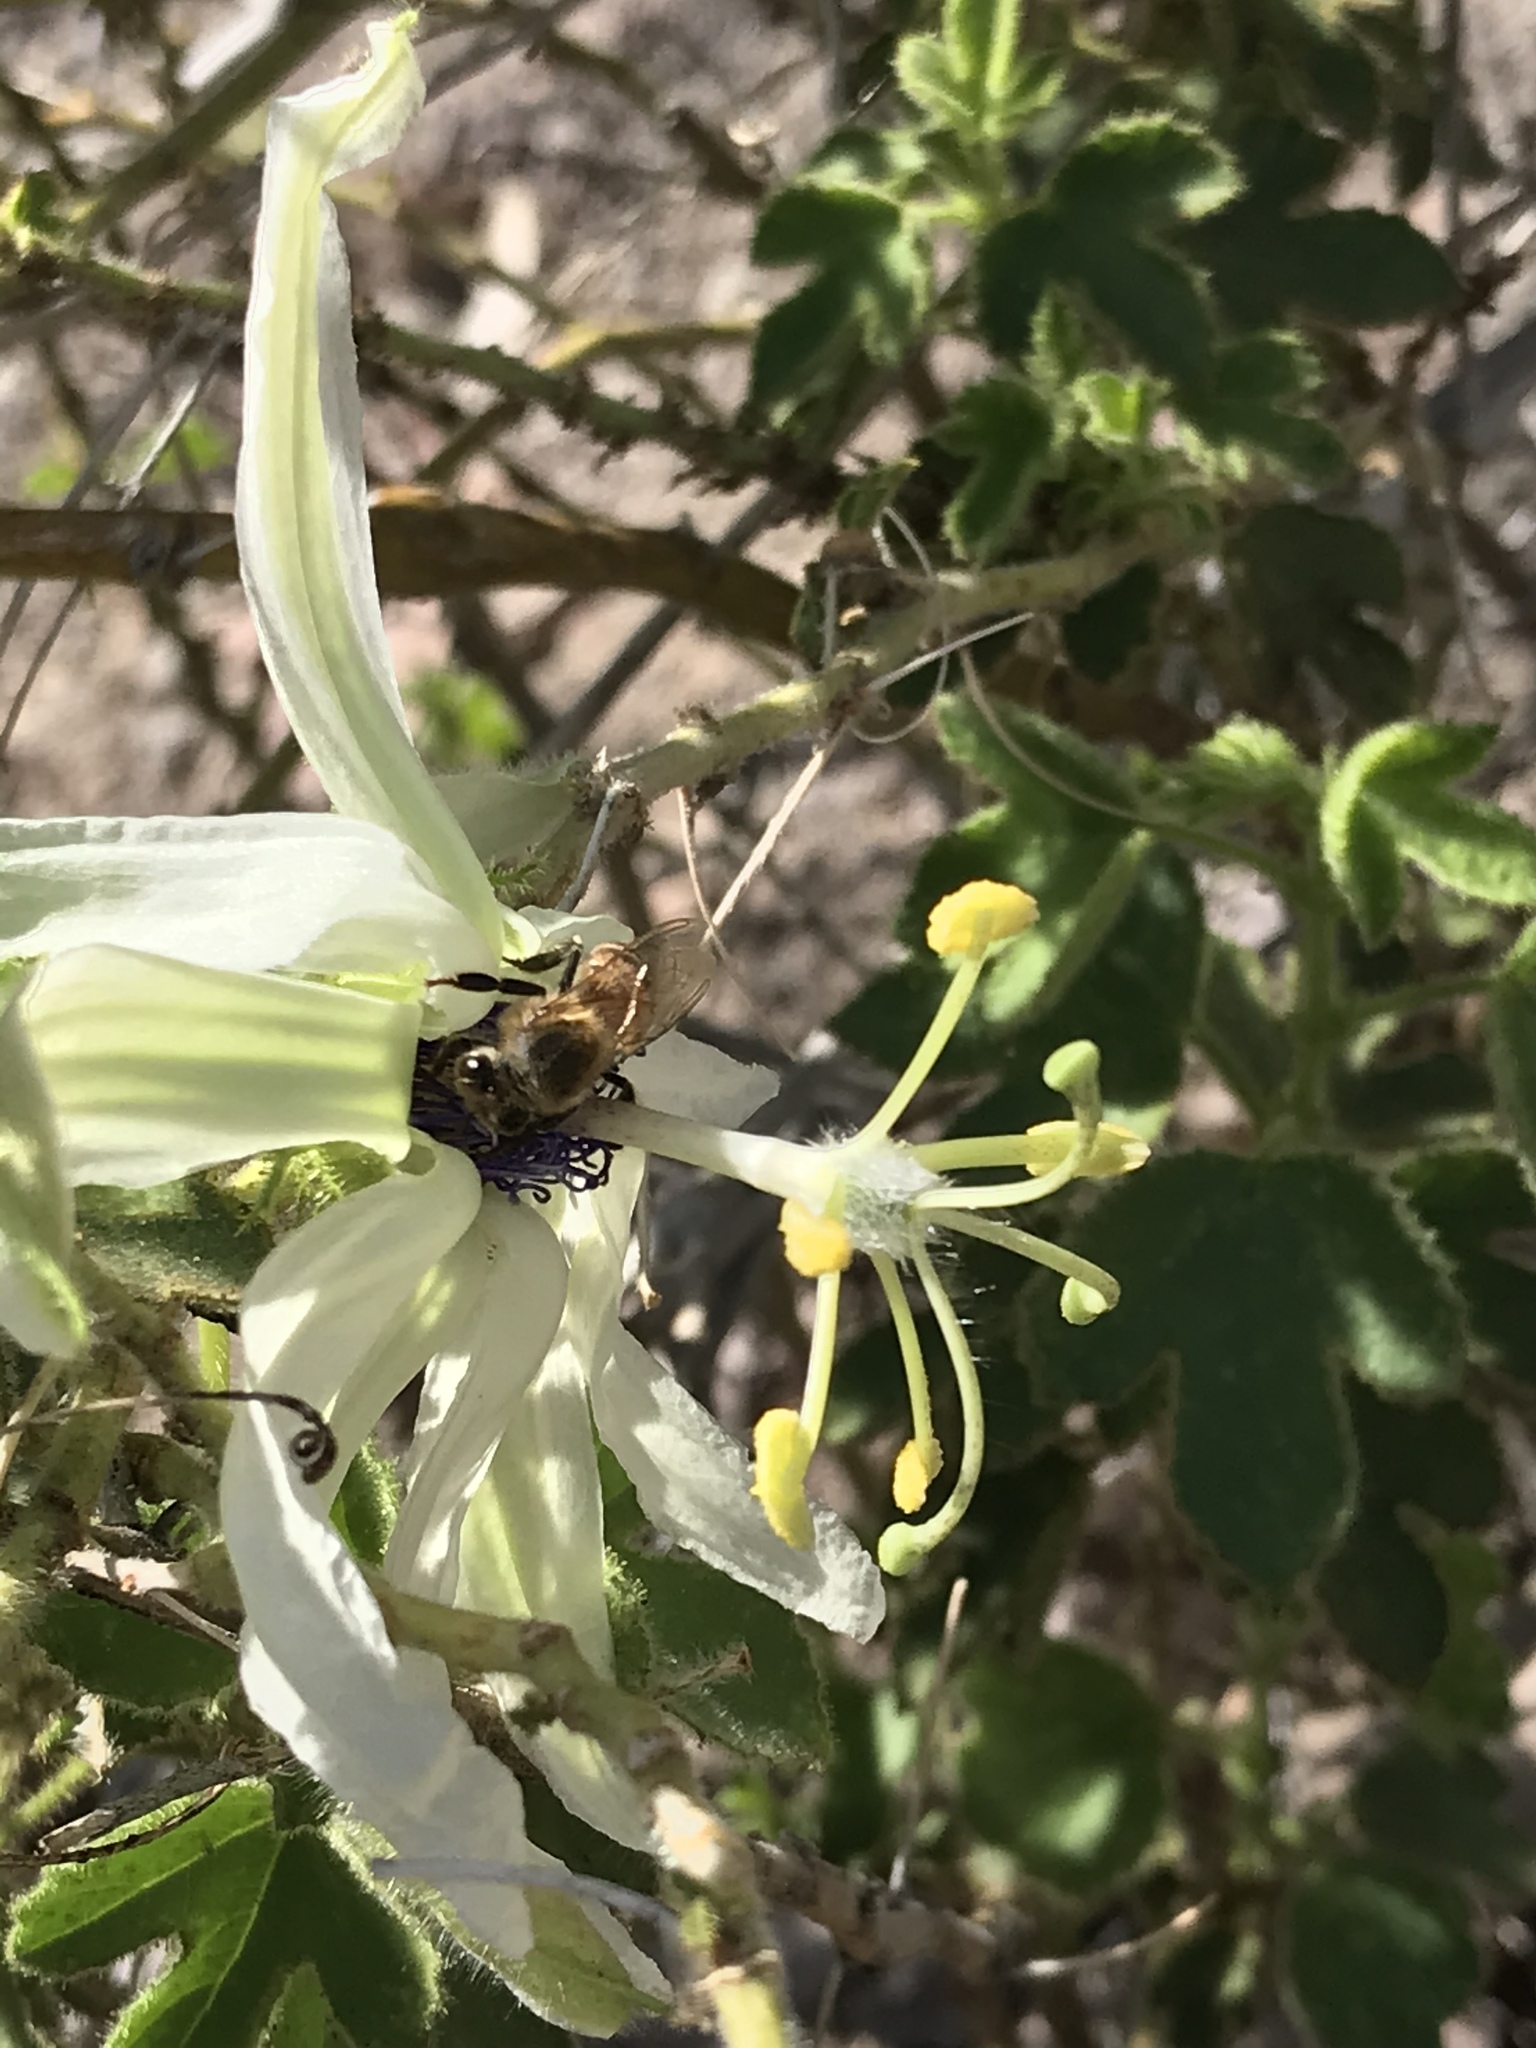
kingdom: Plantae
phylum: Tracheophyta
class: Magnoliopsida
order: Malpighiales
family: Passifloraceae
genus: Passiflora
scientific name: Passiflora palmeri
